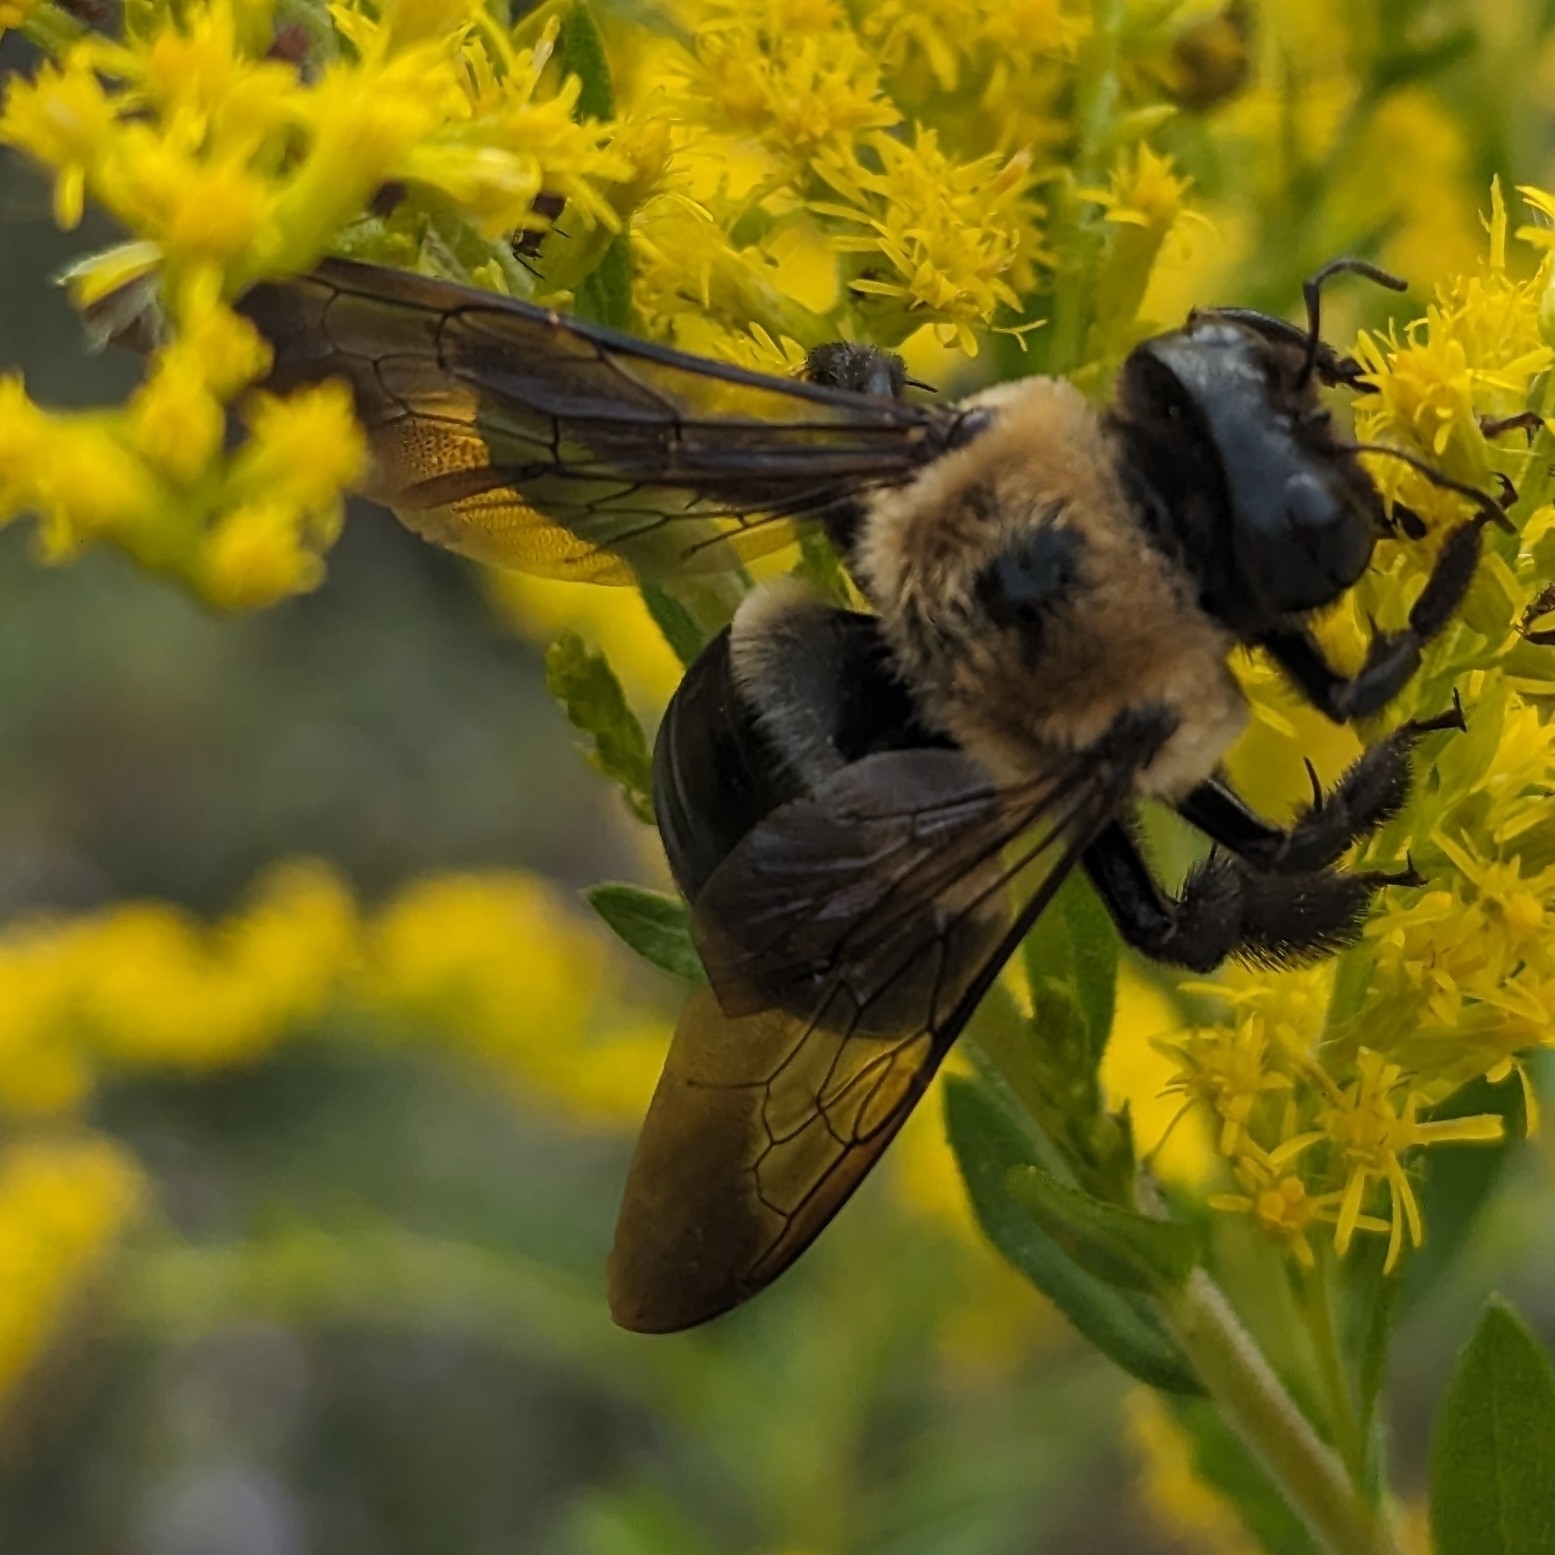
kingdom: Animalia
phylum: Arthropoda
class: Insecta
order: Hymenoptera
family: Apidae
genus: Xylocopa
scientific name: Xylocopa virginica
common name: Carpenter bee
